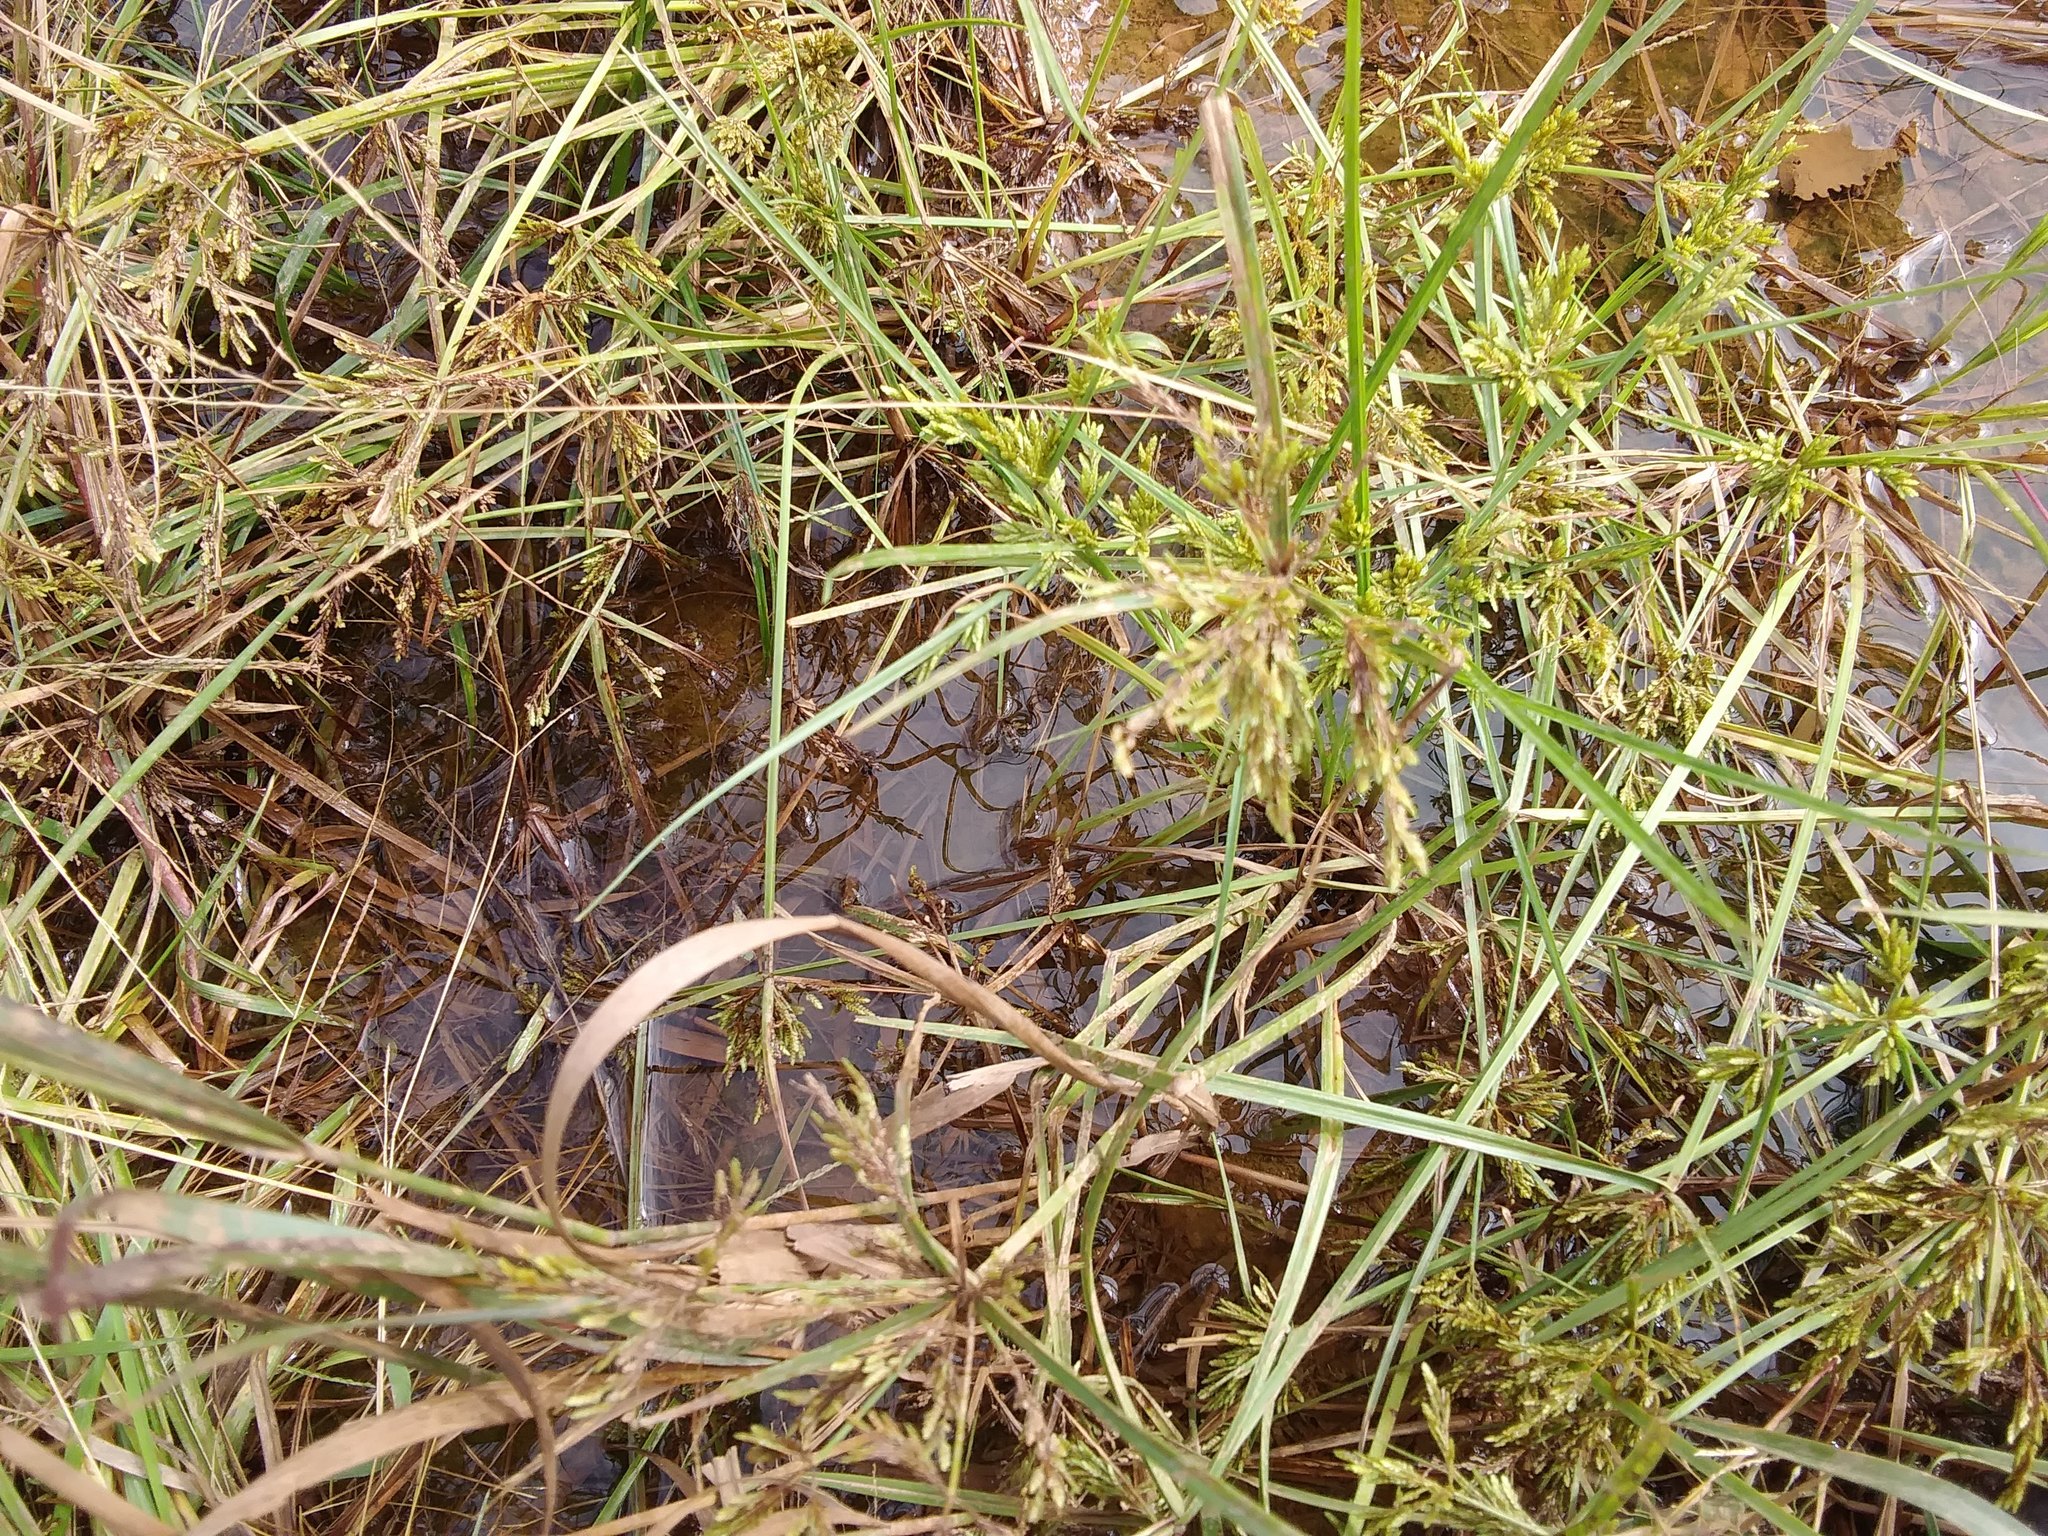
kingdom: Plantae
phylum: Tracheophyta
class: Liliopsida
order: Poales
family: Cyperaceae
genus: Cyperus
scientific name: Cyperus iria
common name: Ricefield flatsedge
